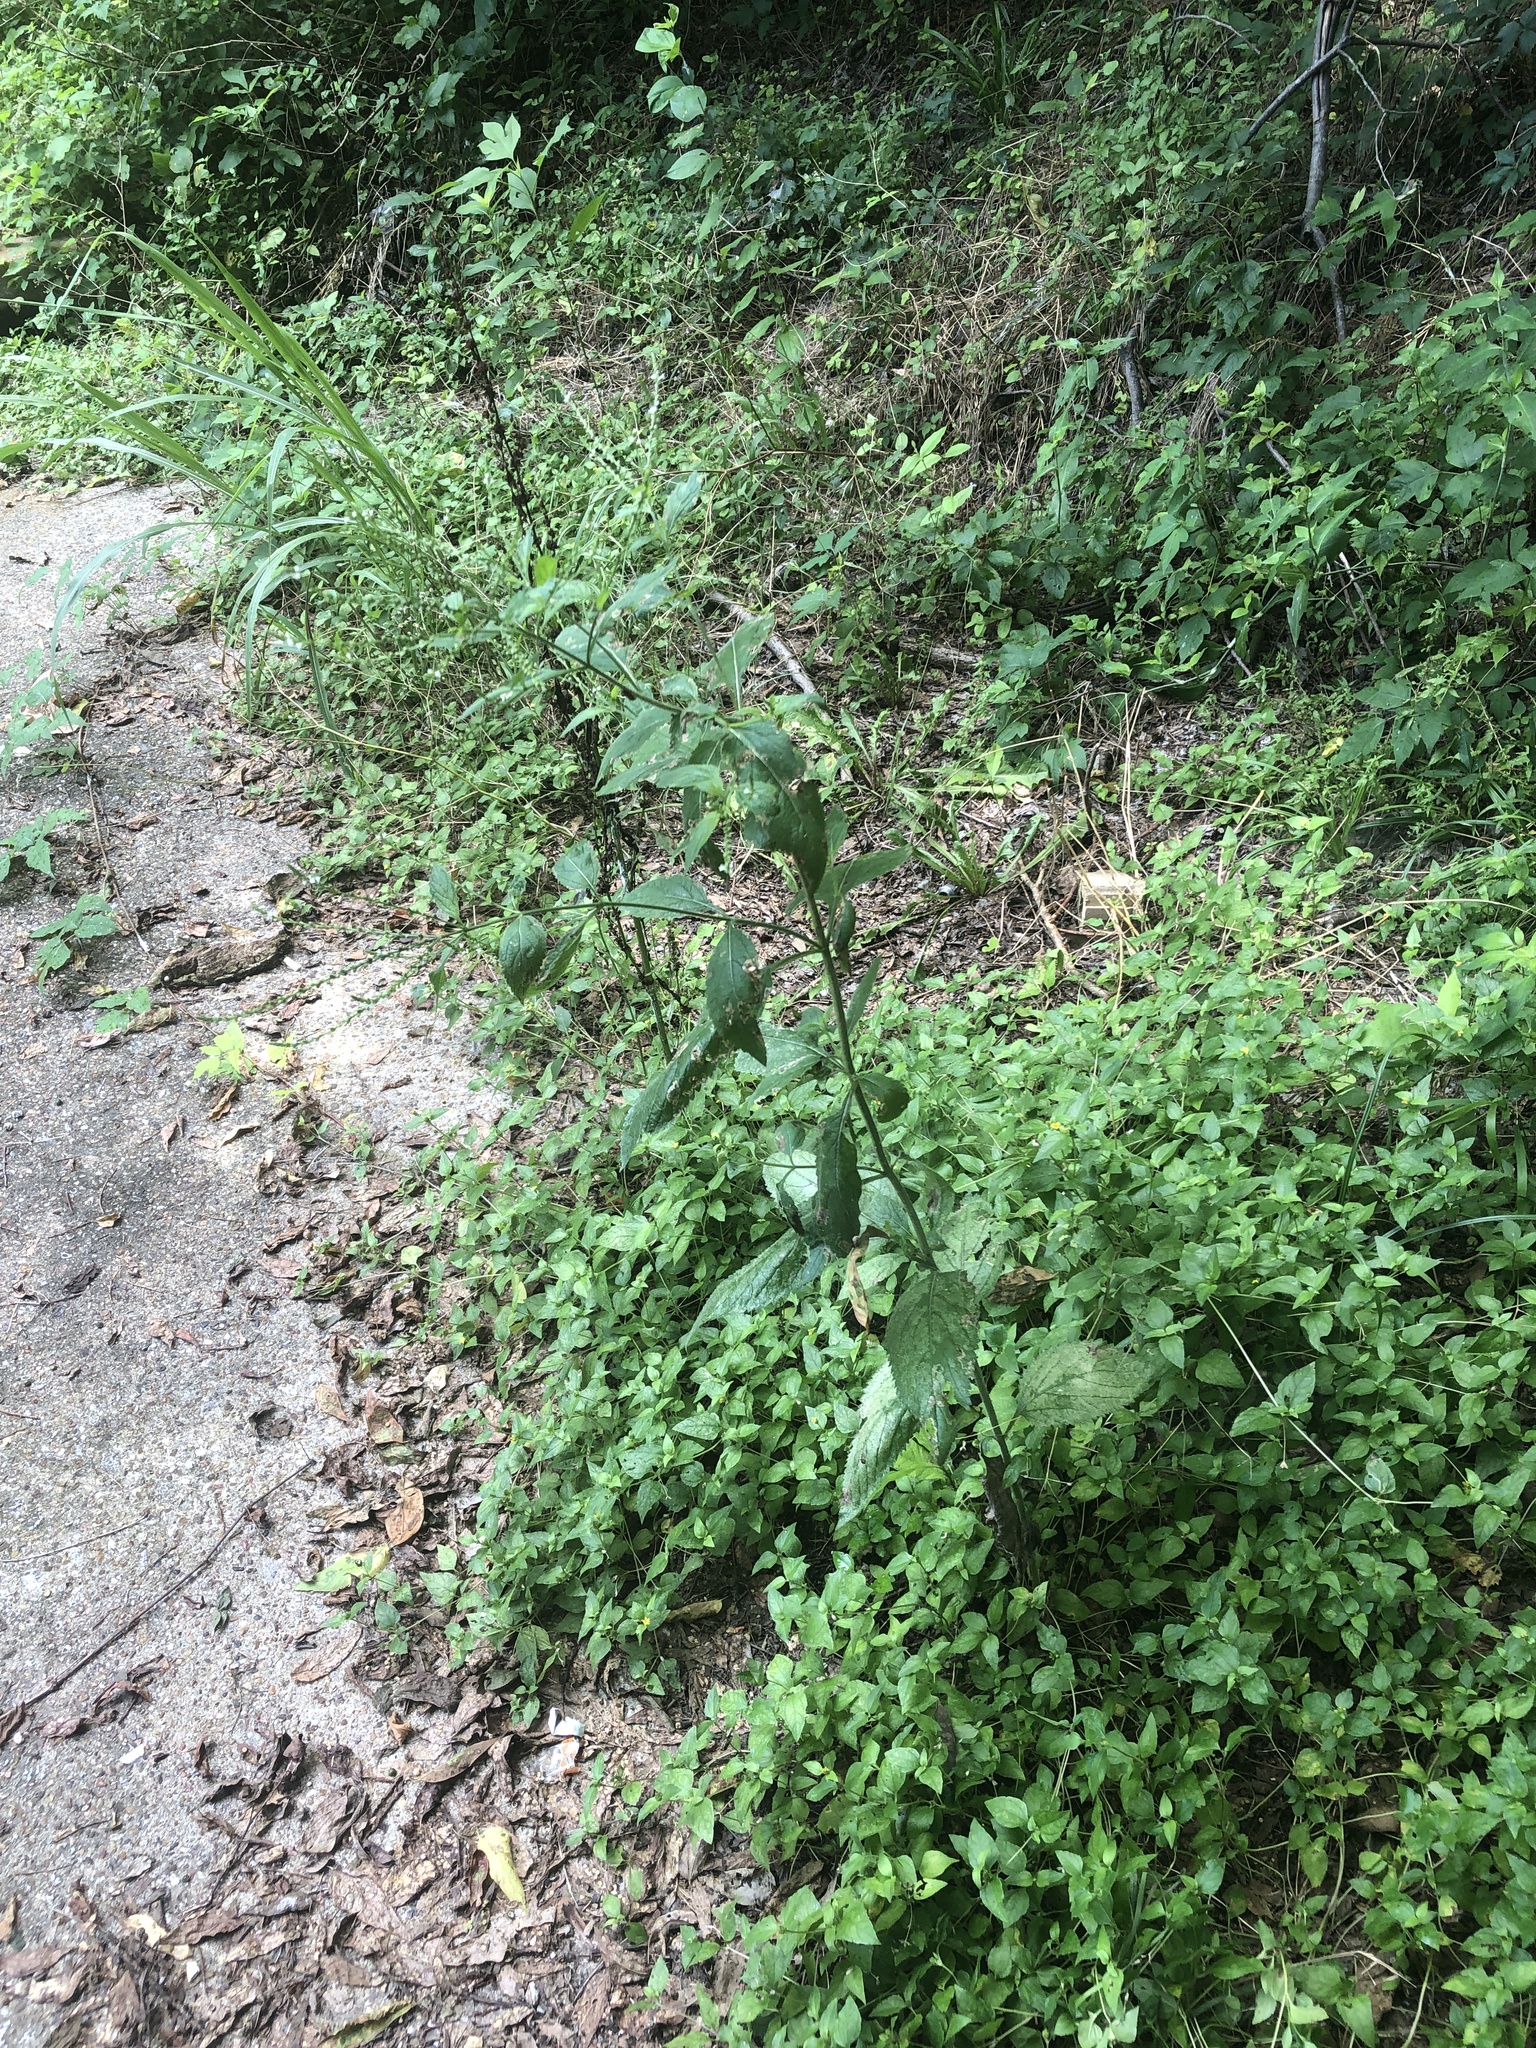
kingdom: Plantae
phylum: Tracheophyta
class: Magnoliopsida
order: Lamiales
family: Verbenaceae
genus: Verbena
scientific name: Verbena urticifolia
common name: Nettle-leaved vervain
